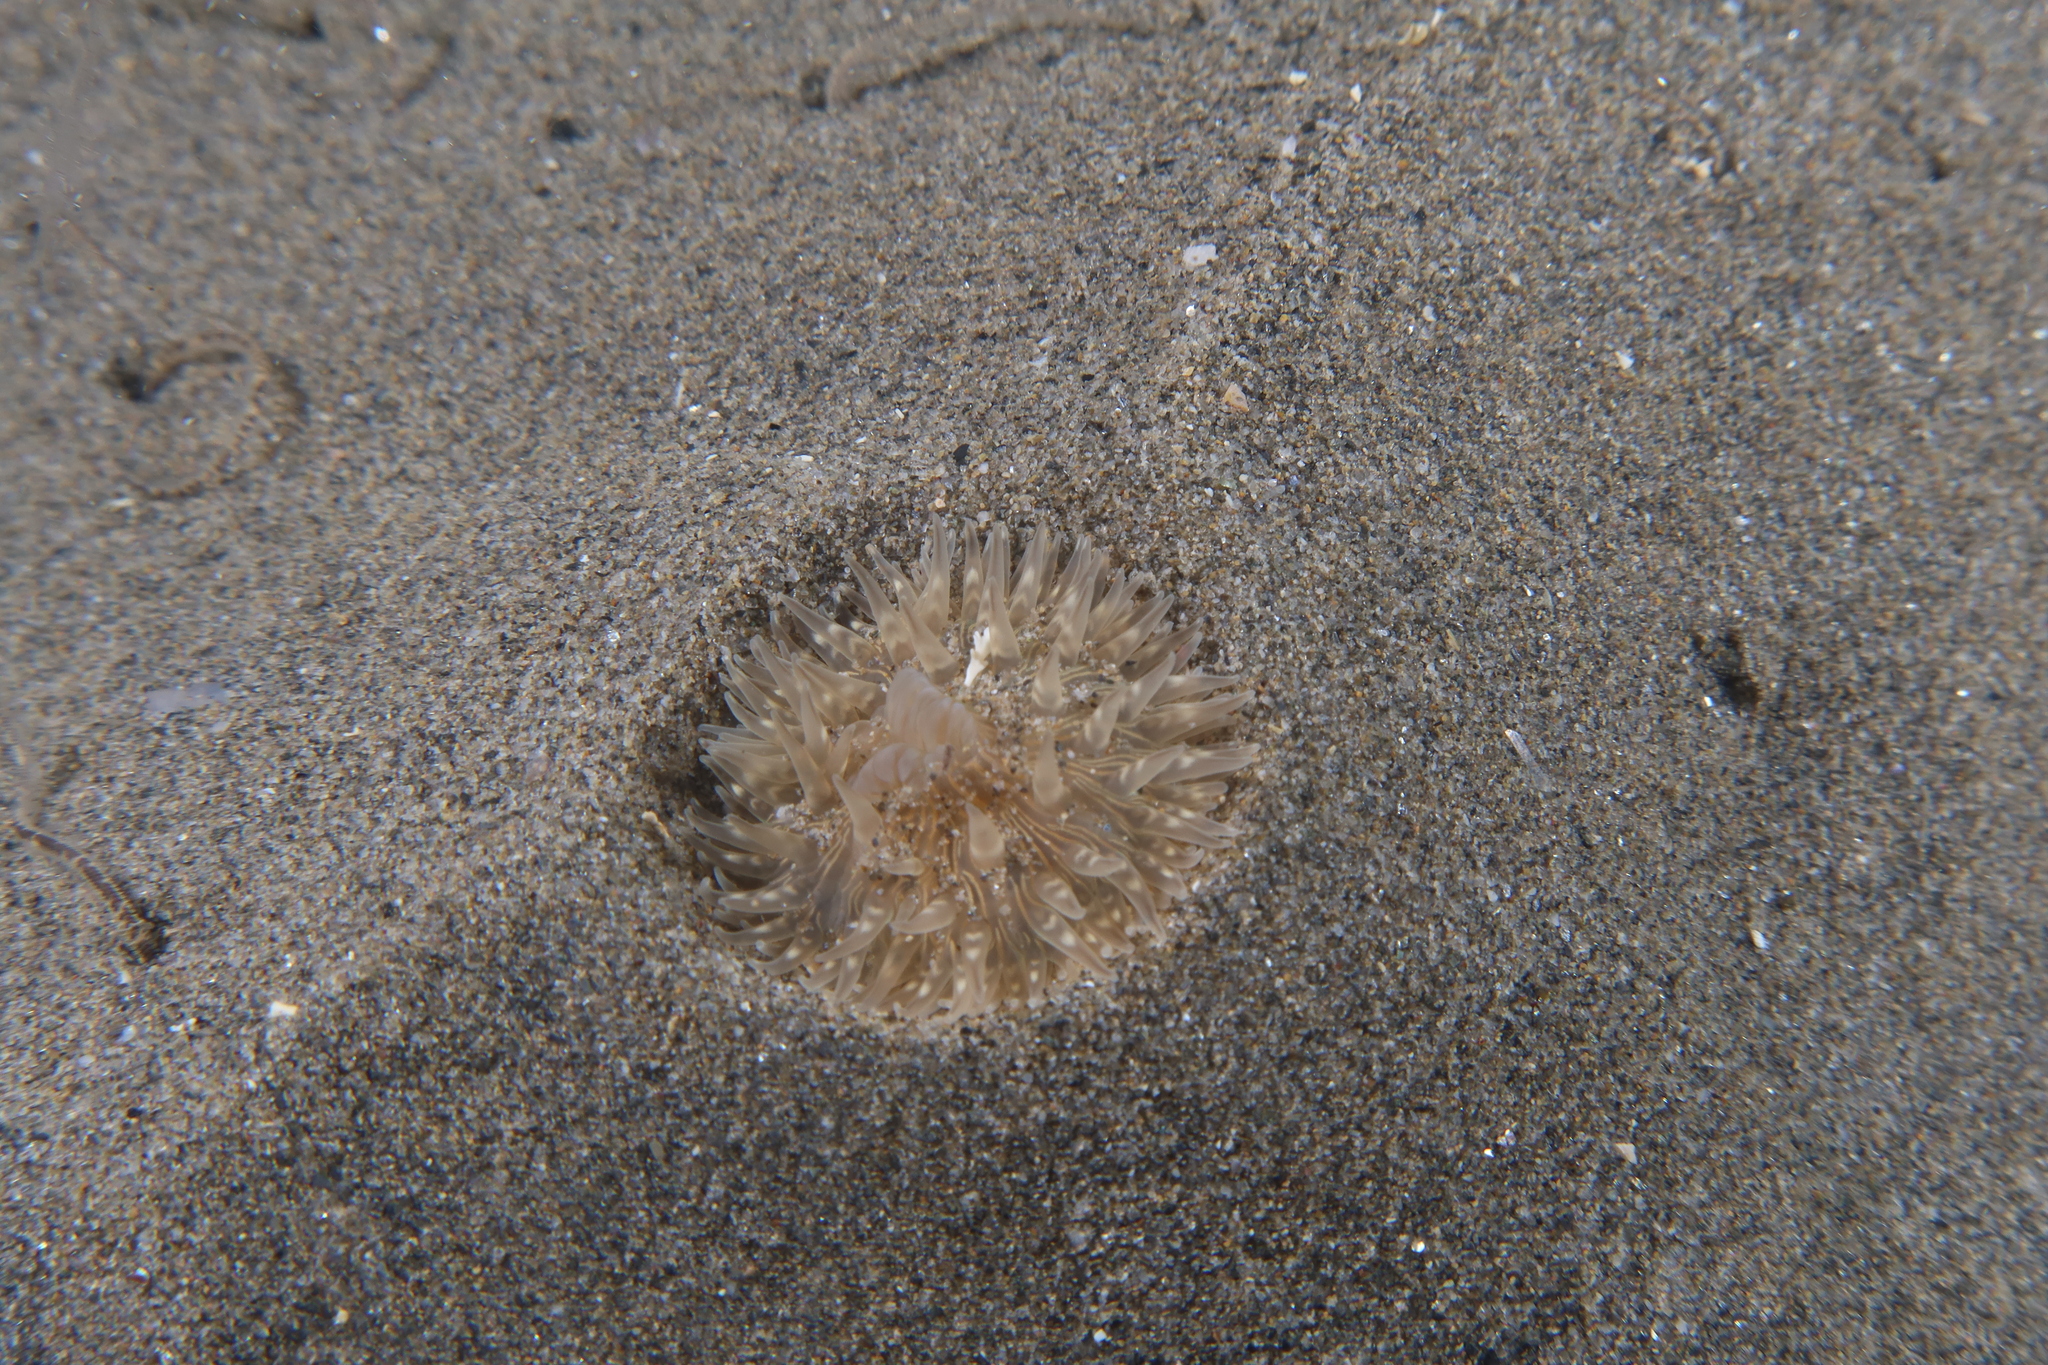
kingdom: Animalia
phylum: Cnidaria
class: Anthozoa
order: Actiniaria
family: Sagartiidae
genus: Cylista
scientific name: Cylista troglodytes
